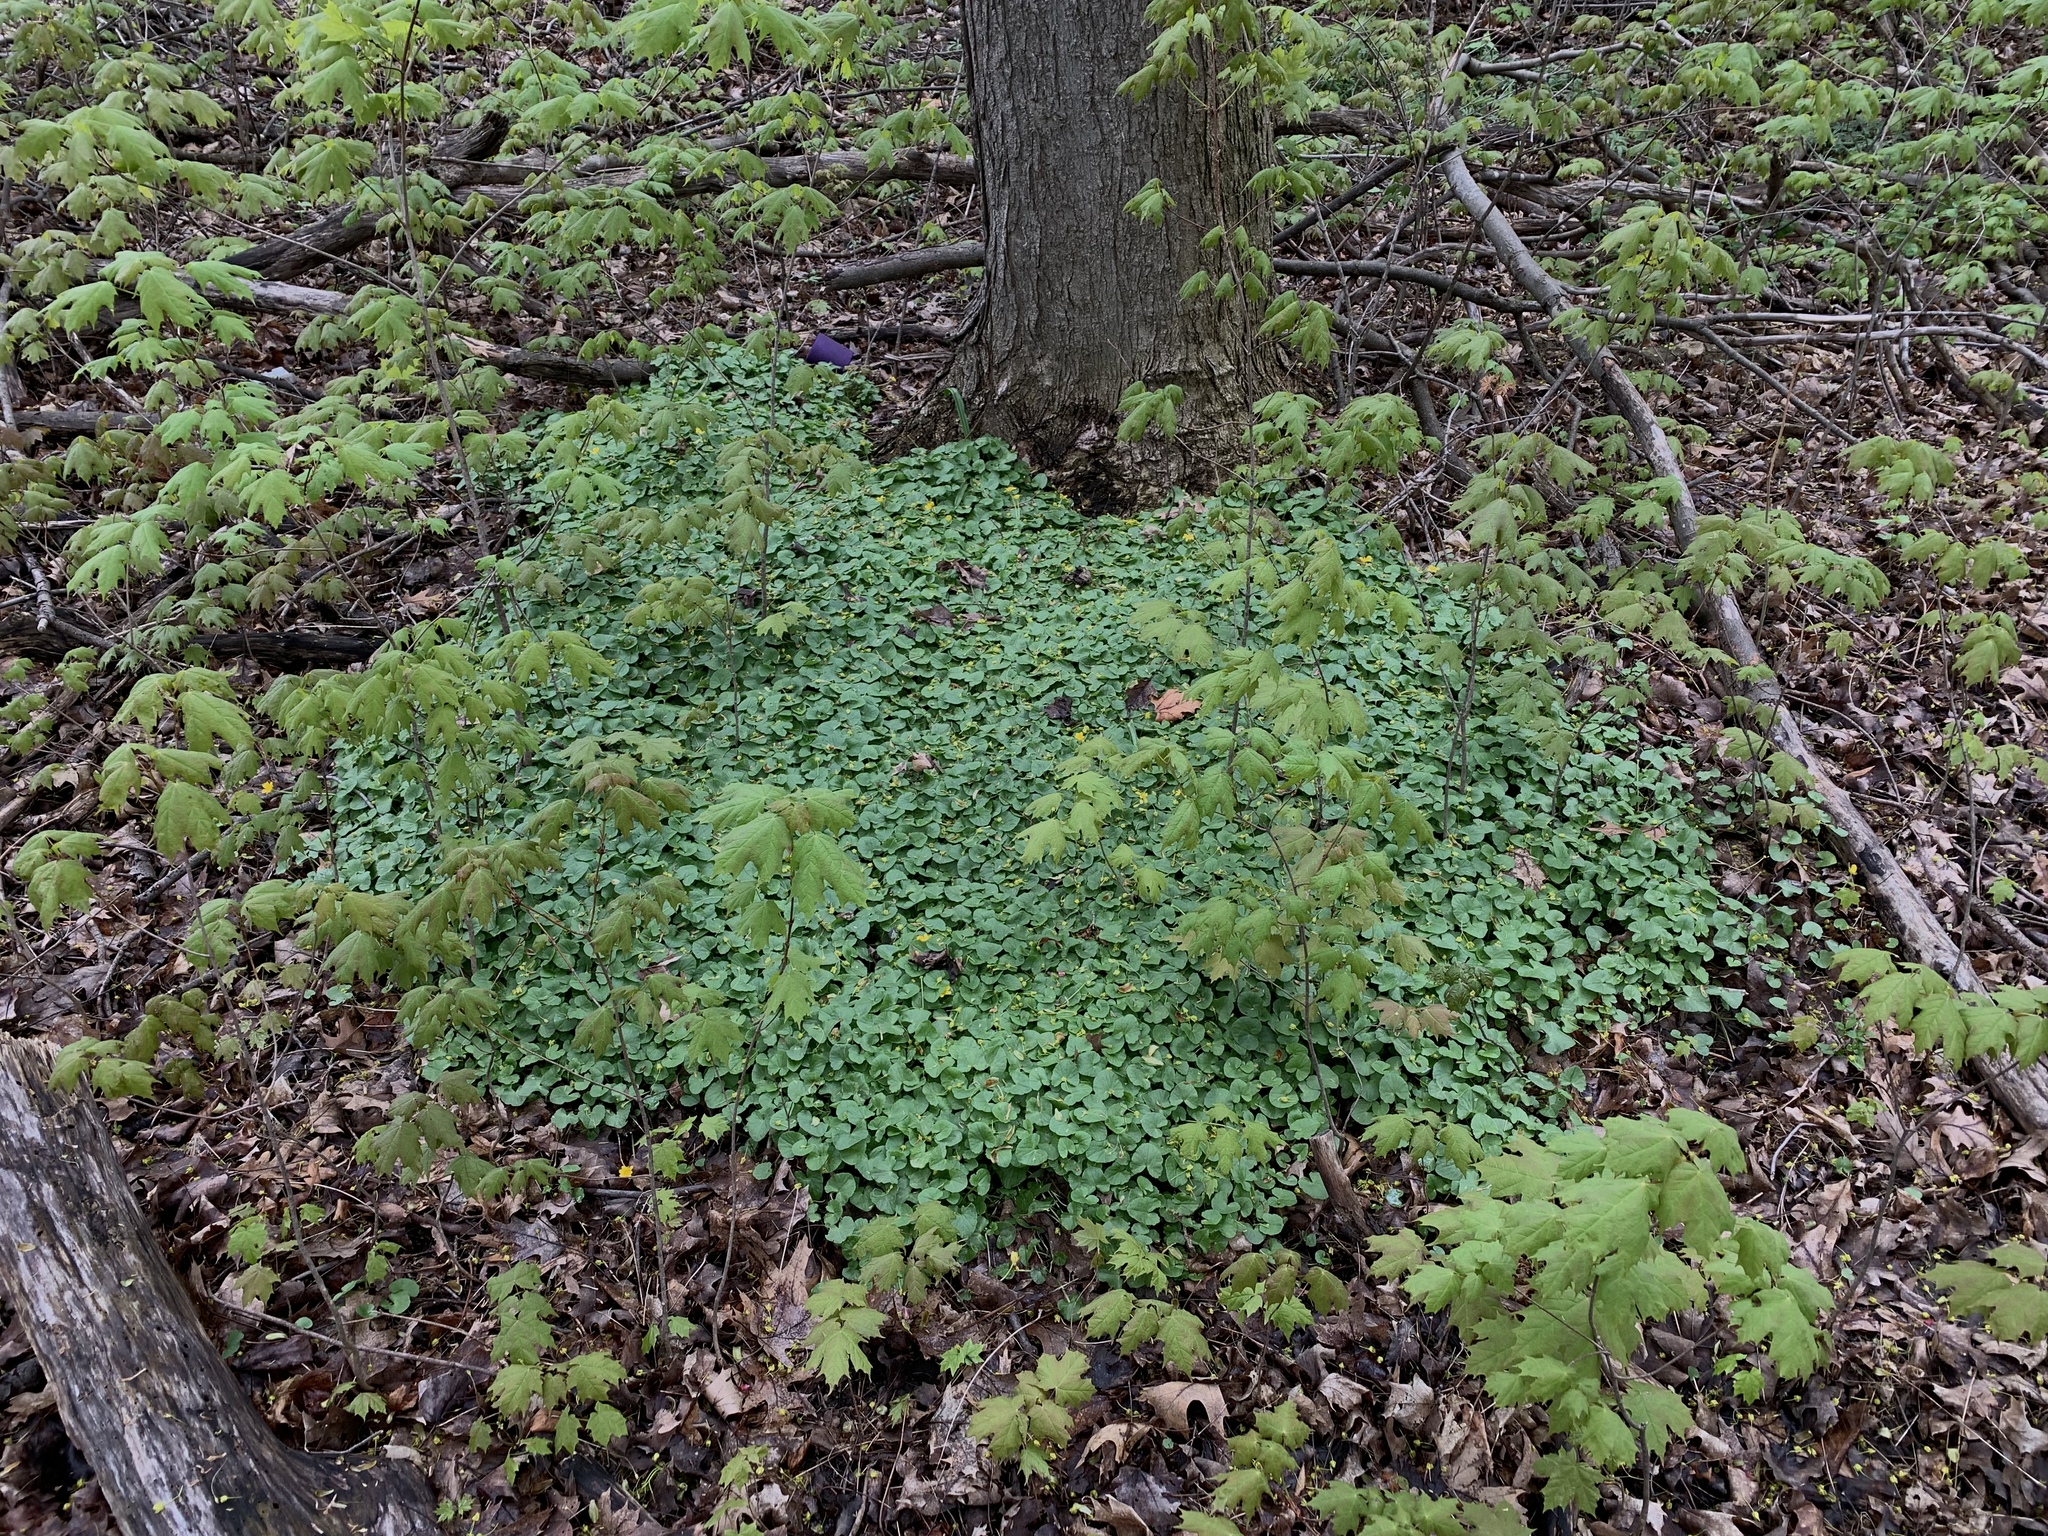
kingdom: Plantae
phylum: Tracheophyta
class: Magnoliopsida
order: Ranunculales
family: Ranunculaceae
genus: Ficaria
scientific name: Ficaria verna
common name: Lesser celandine
